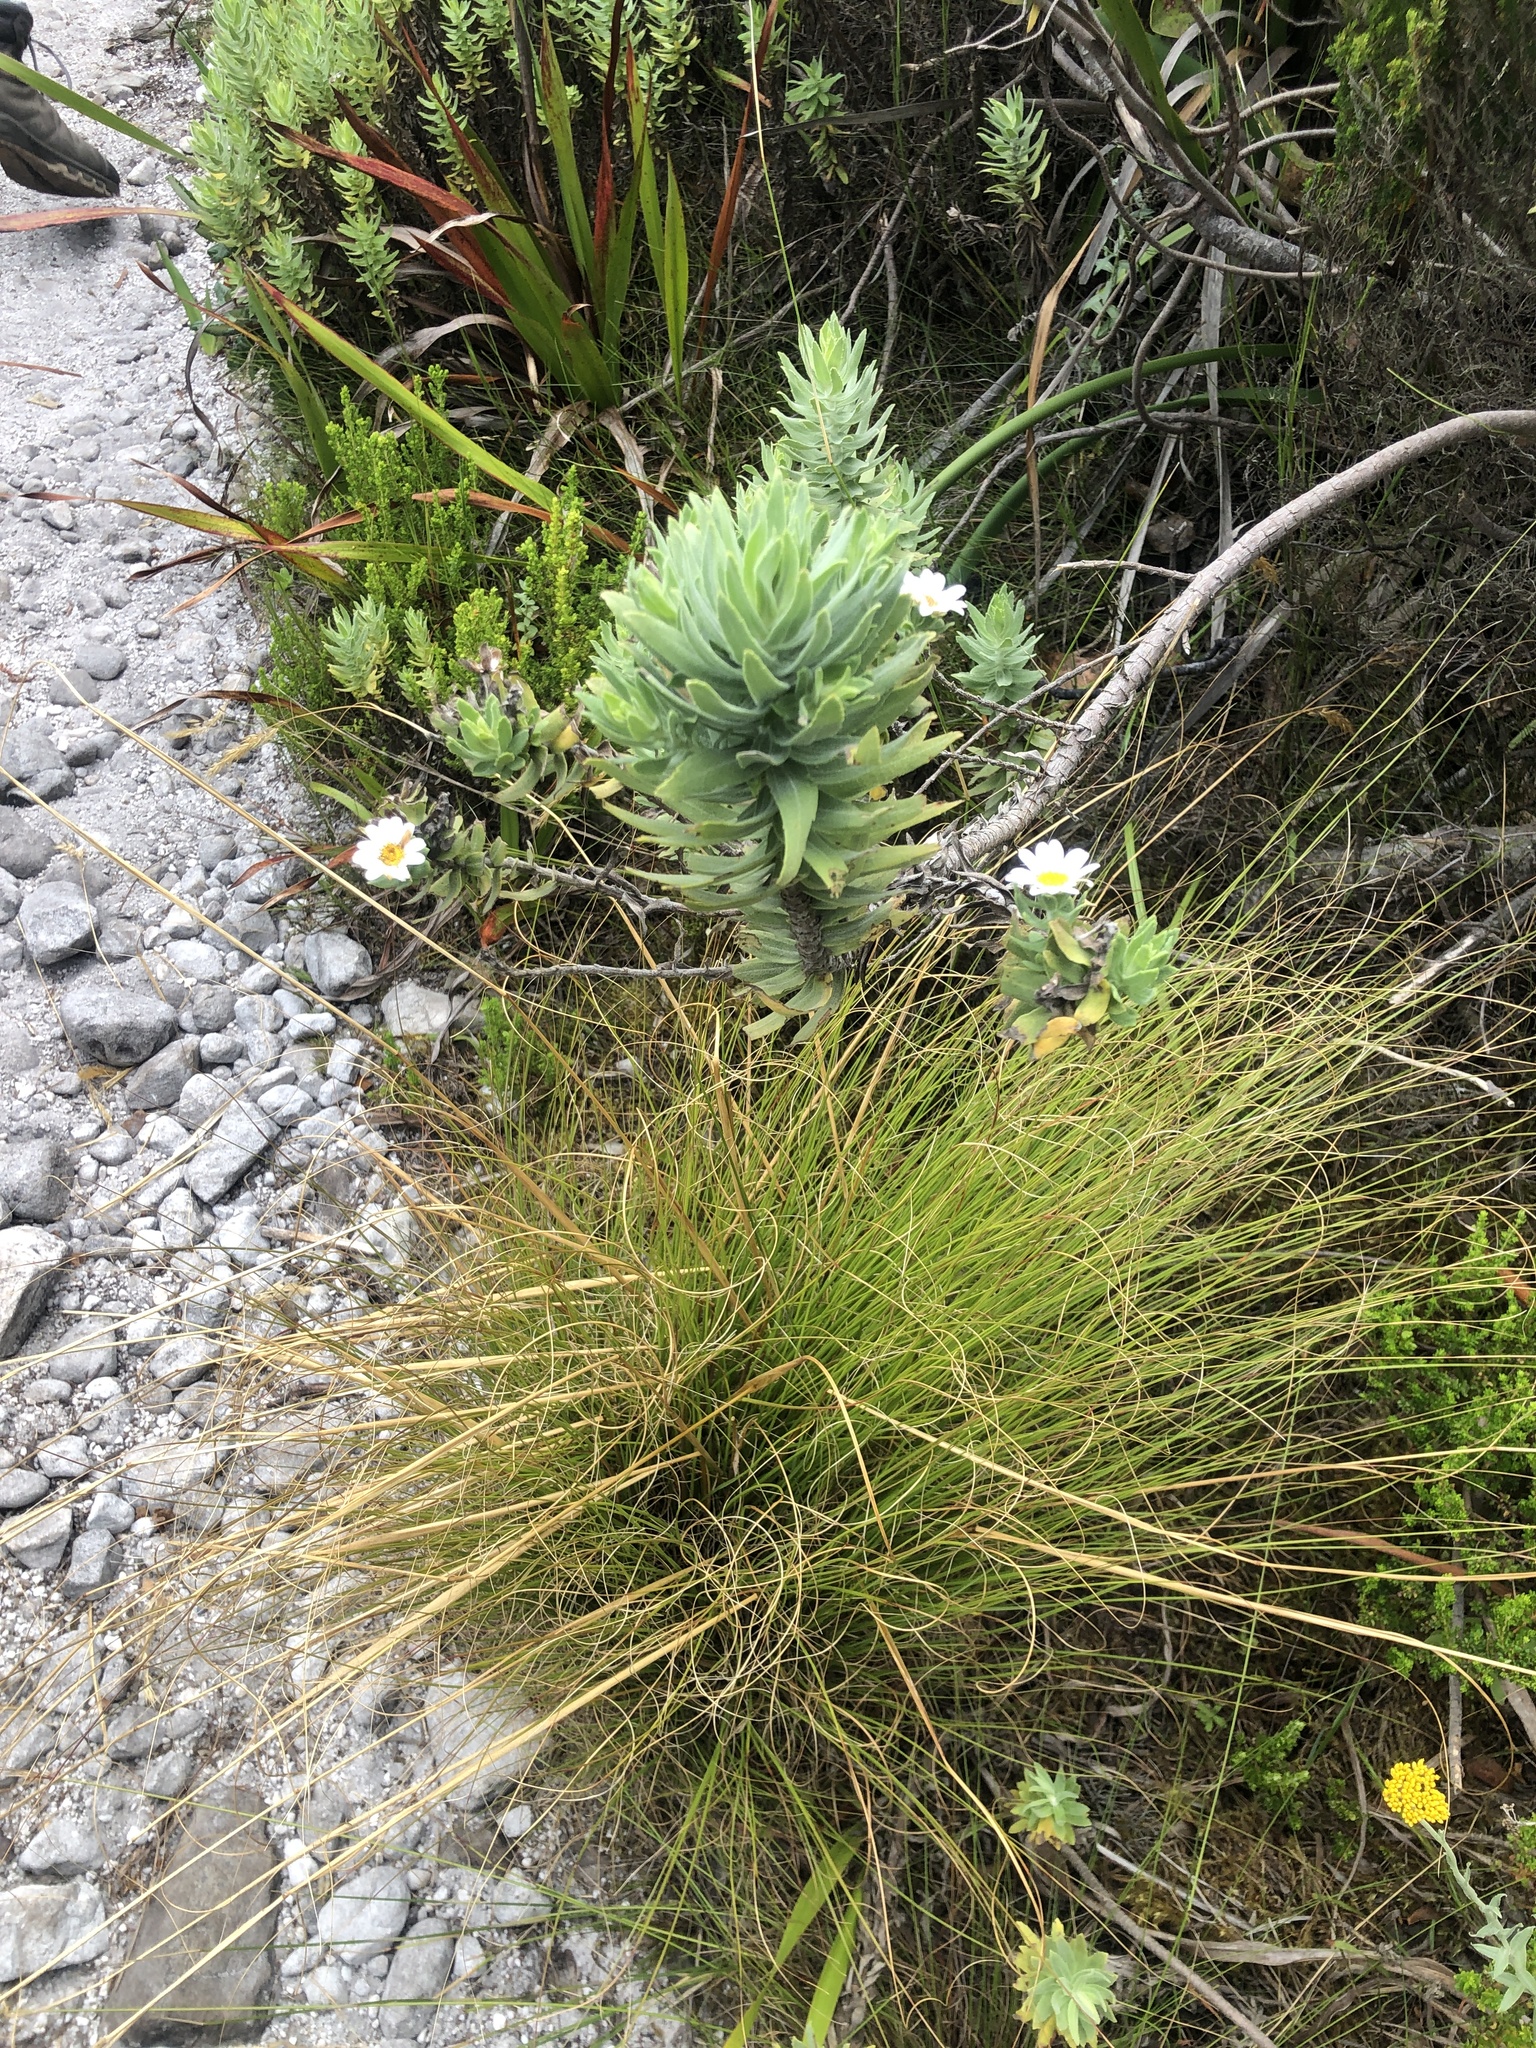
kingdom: Plantae
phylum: Tracheophyta
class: Magnoliopsida
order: Asterales
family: Asteraceae
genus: Osmitopsis
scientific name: Osmitopsis asteriscoides
